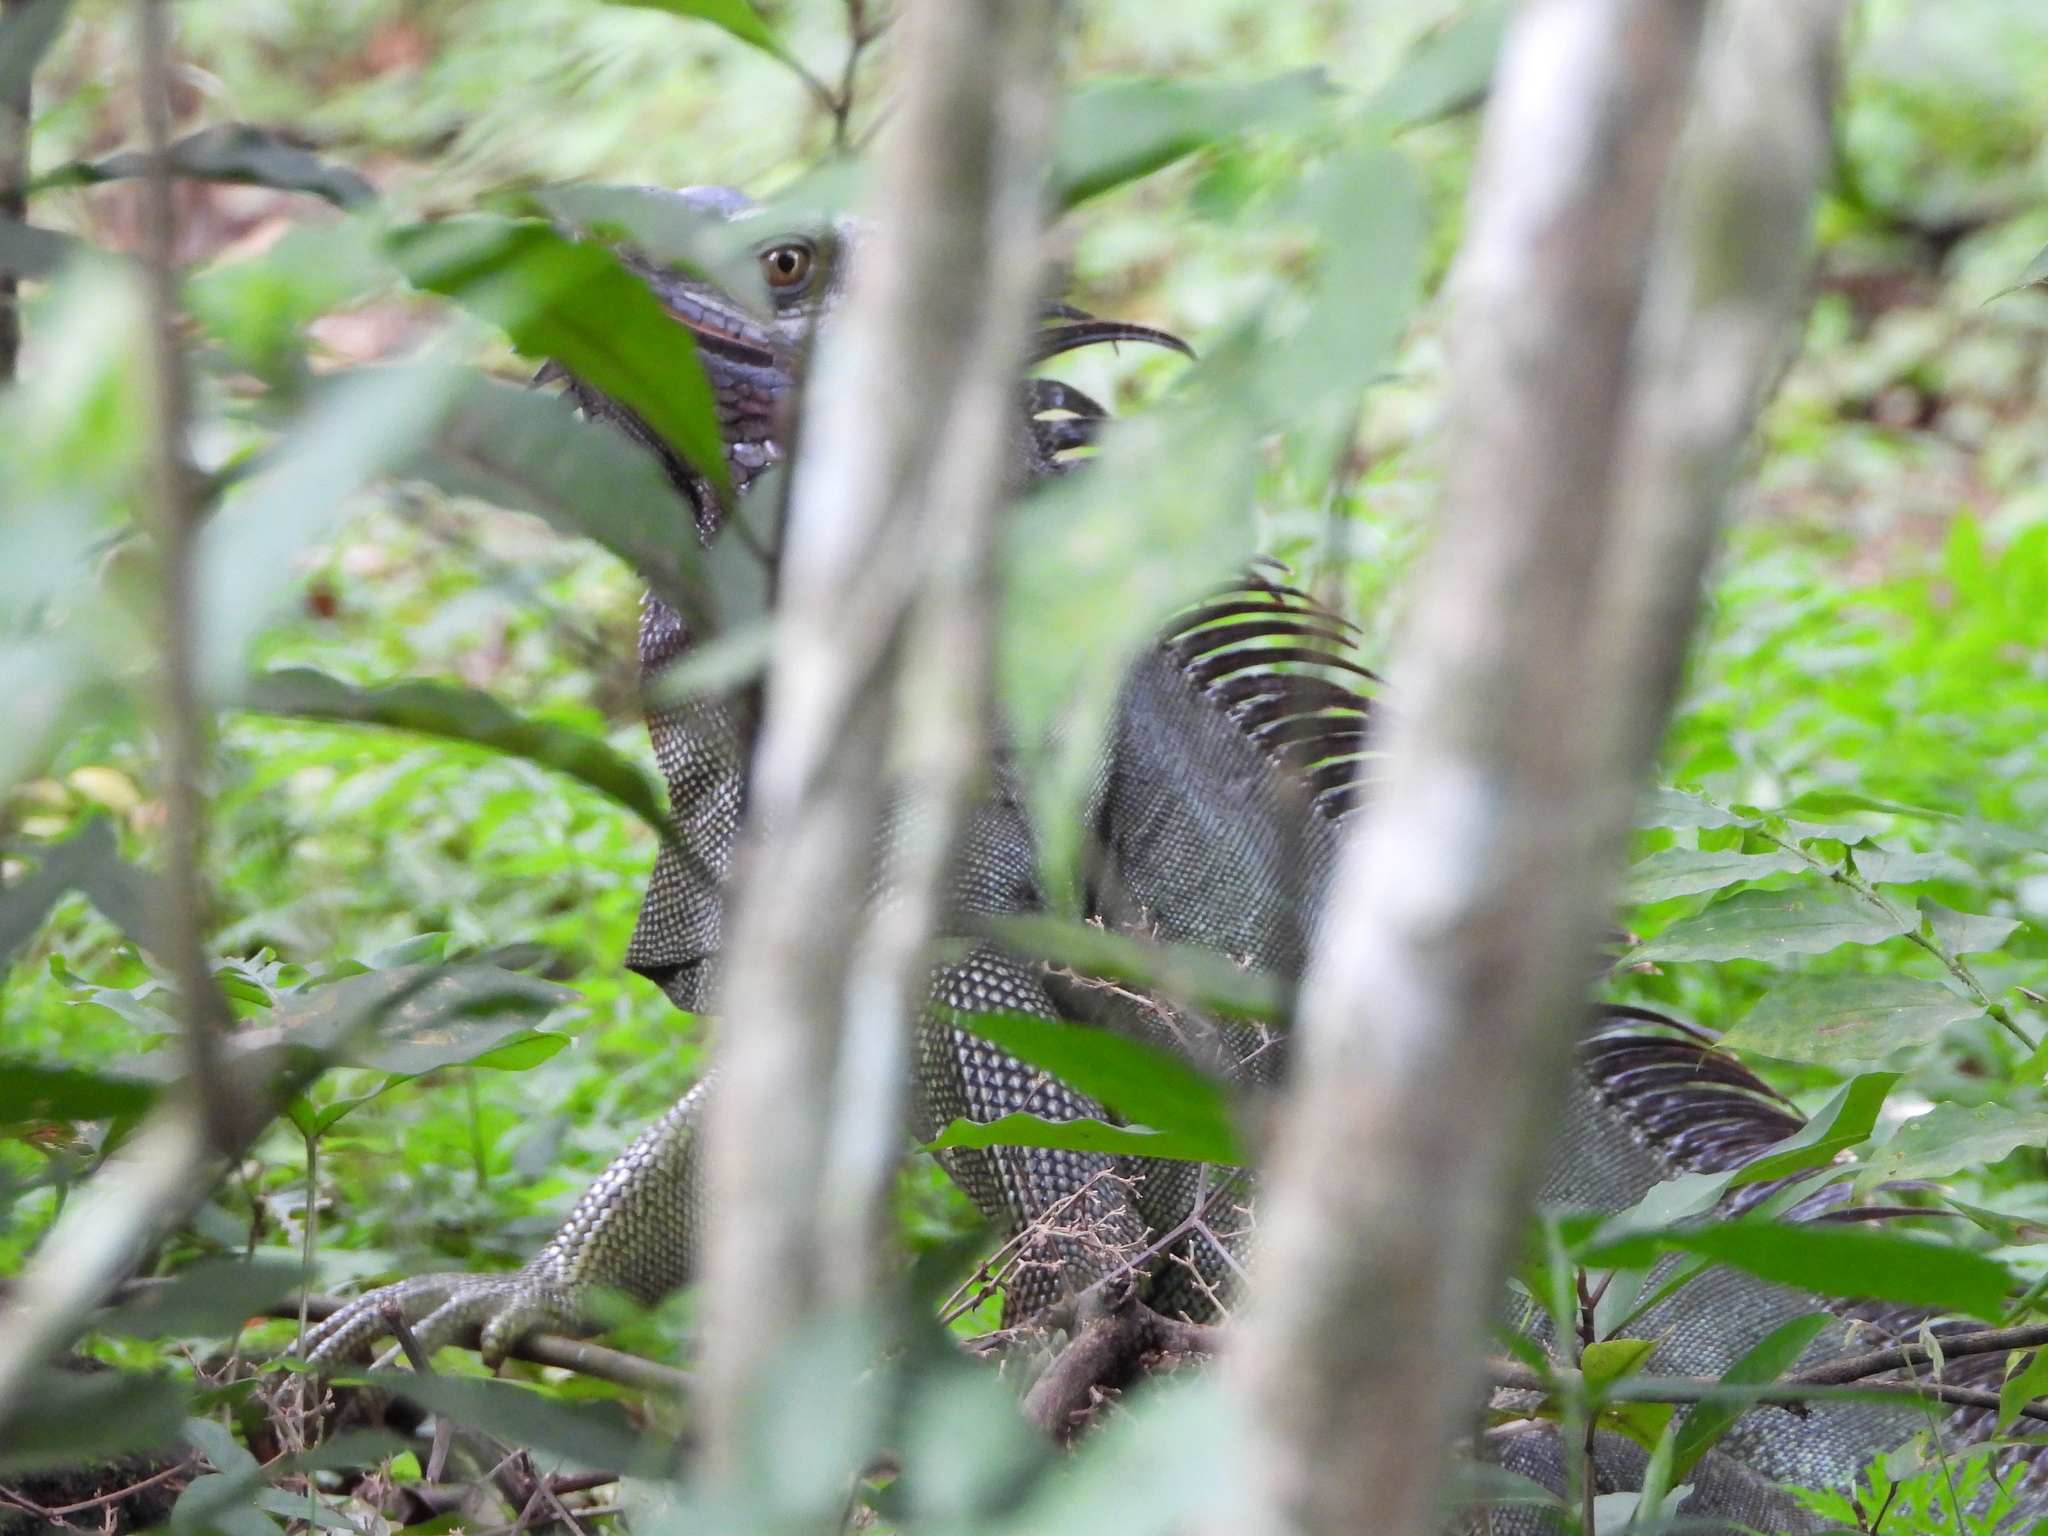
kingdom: Animalia
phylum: Chordata
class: Squamata
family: Iguanidae
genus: Iguana
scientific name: Iguana iguana
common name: Green iguana
